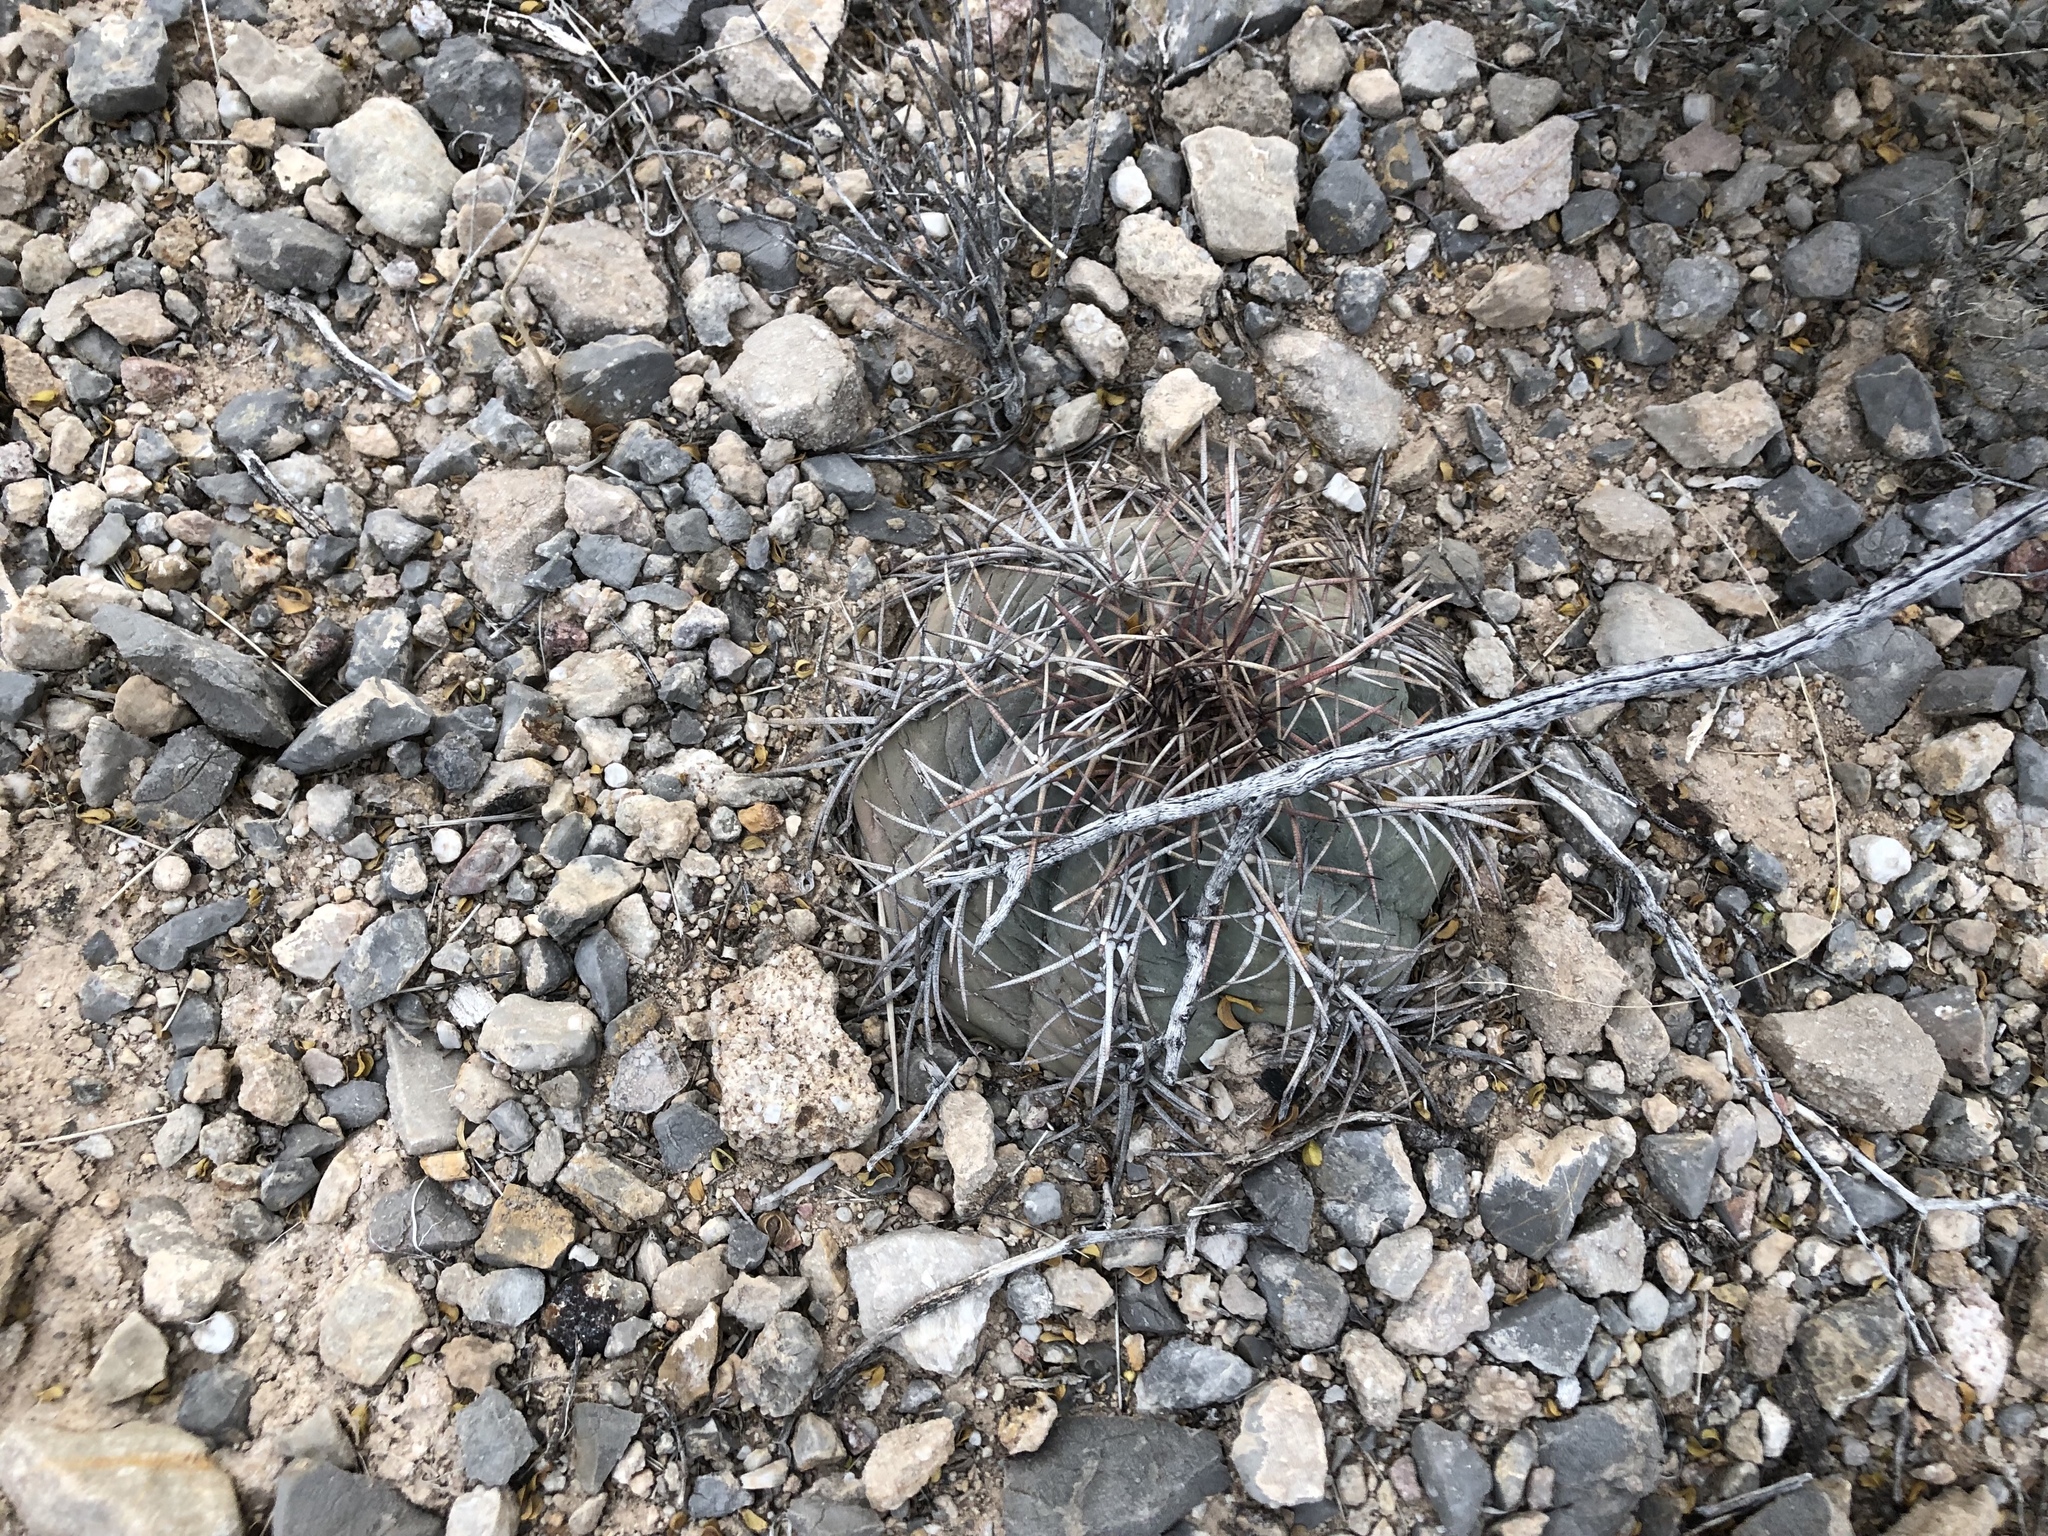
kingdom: Plantae
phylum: Tracheophyta
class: Magnoliopsida
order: Caryophyllales
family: Cactaceae
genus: Echinocactus
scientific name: Echinocactus horizonthalonius
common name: Devilshead
